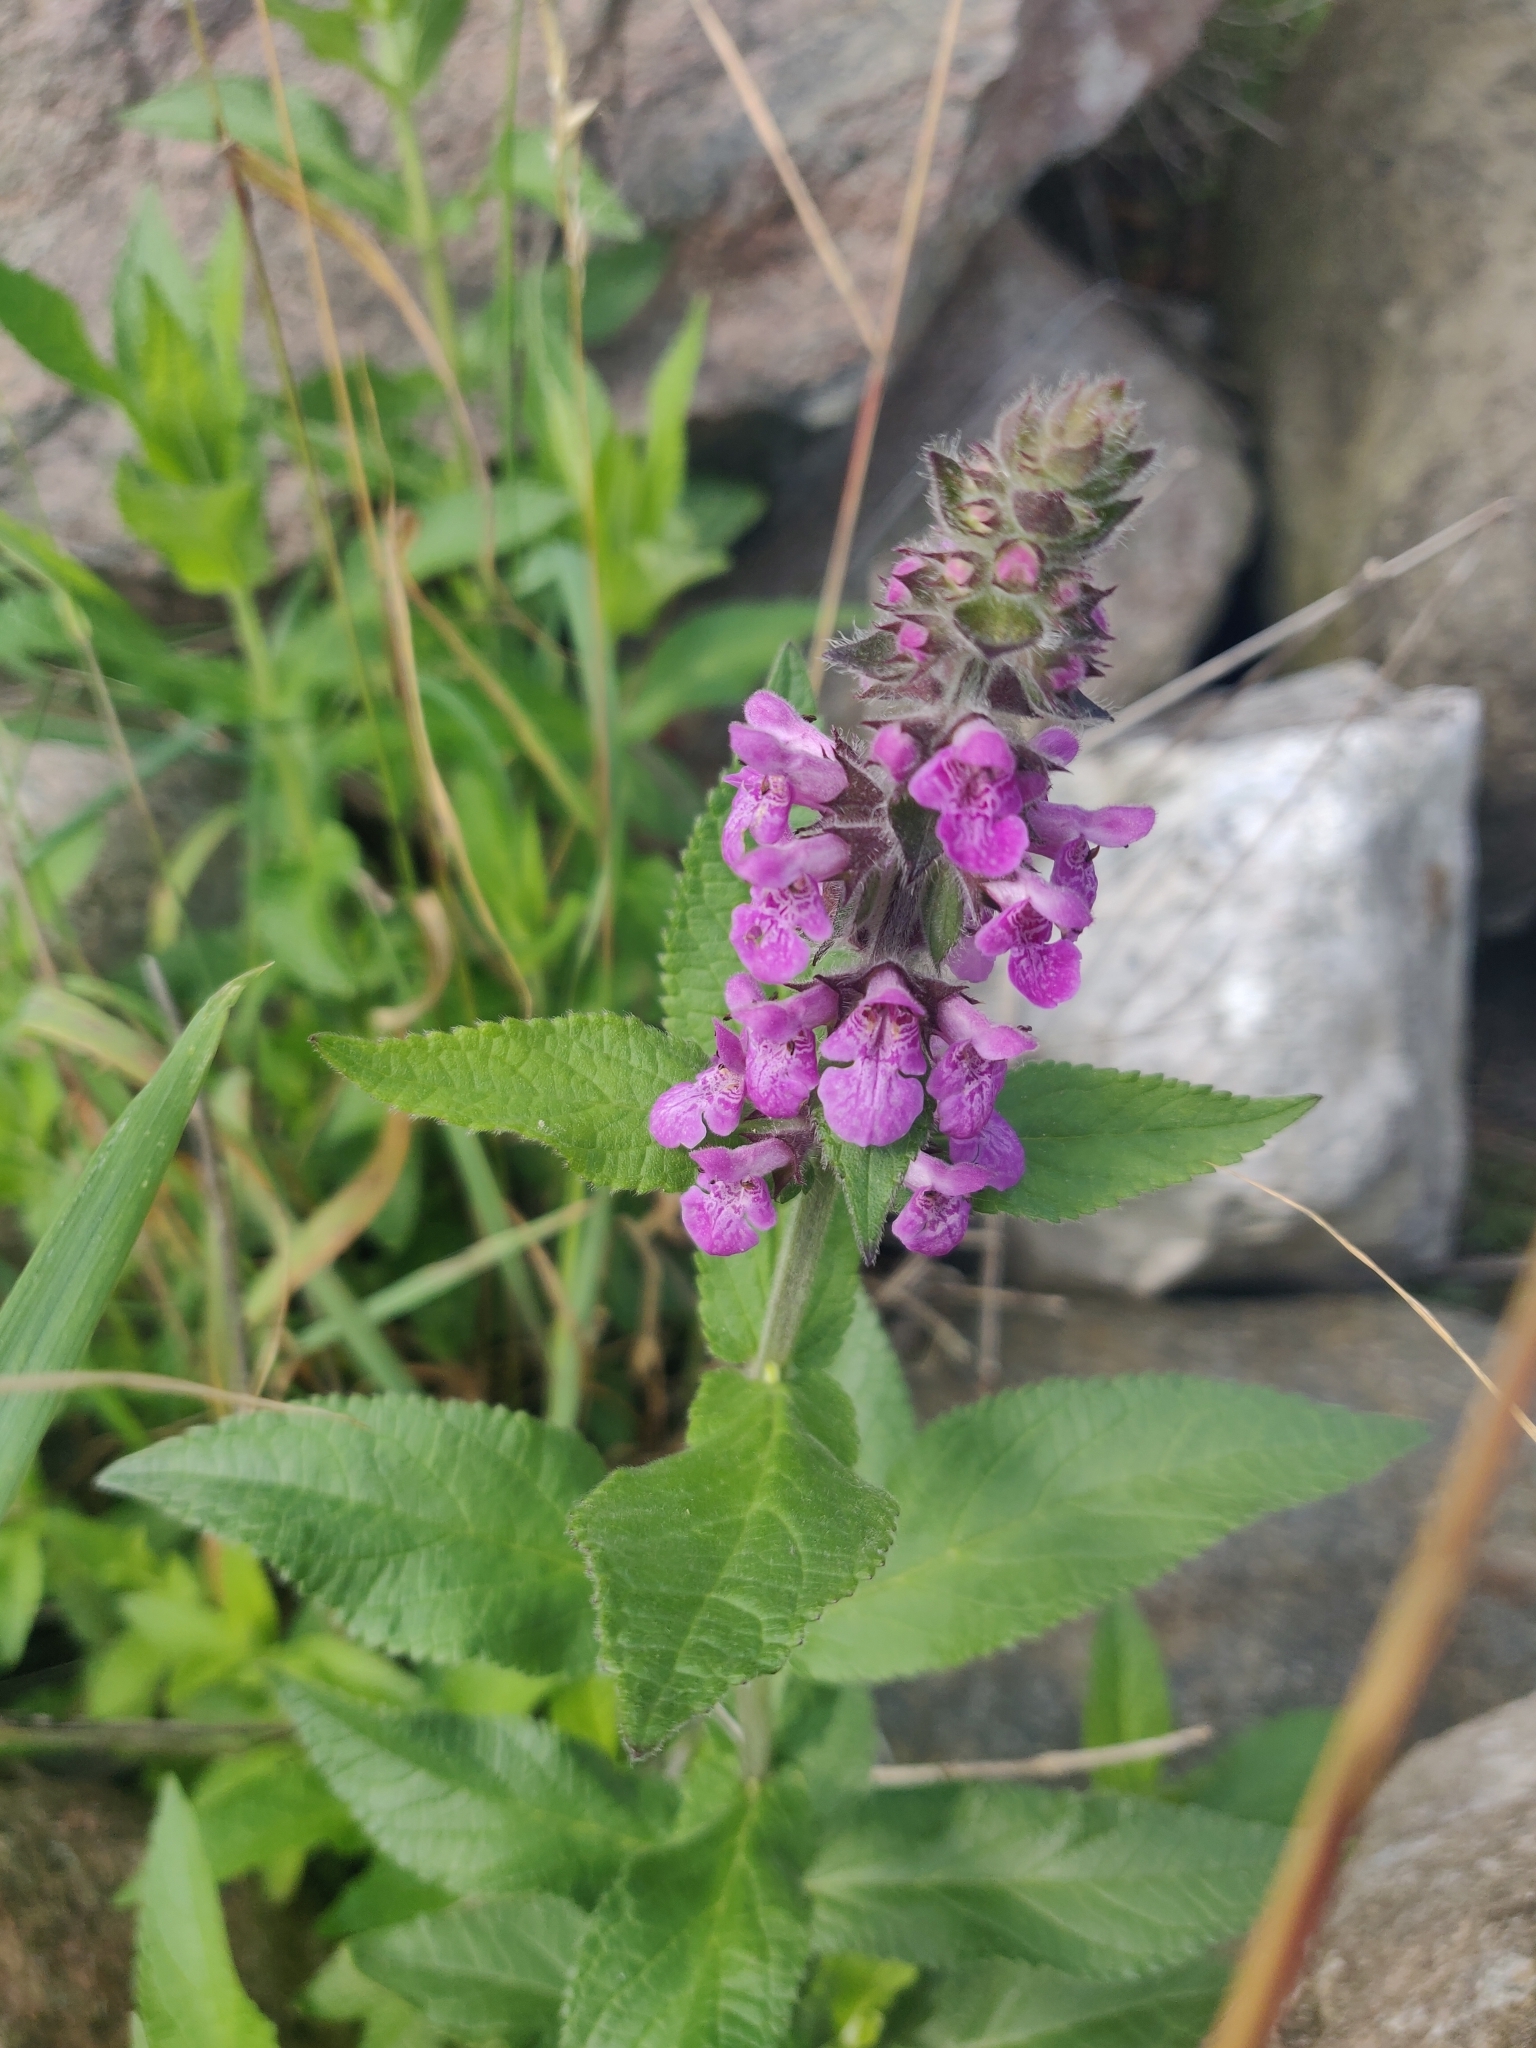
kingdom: Plantae
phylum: Tracheophyta
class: Magnoliopsida
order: Lamiales
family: Lamiaceae
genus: Stachys
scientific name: Stachys palustris
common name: Marsh woundwort
